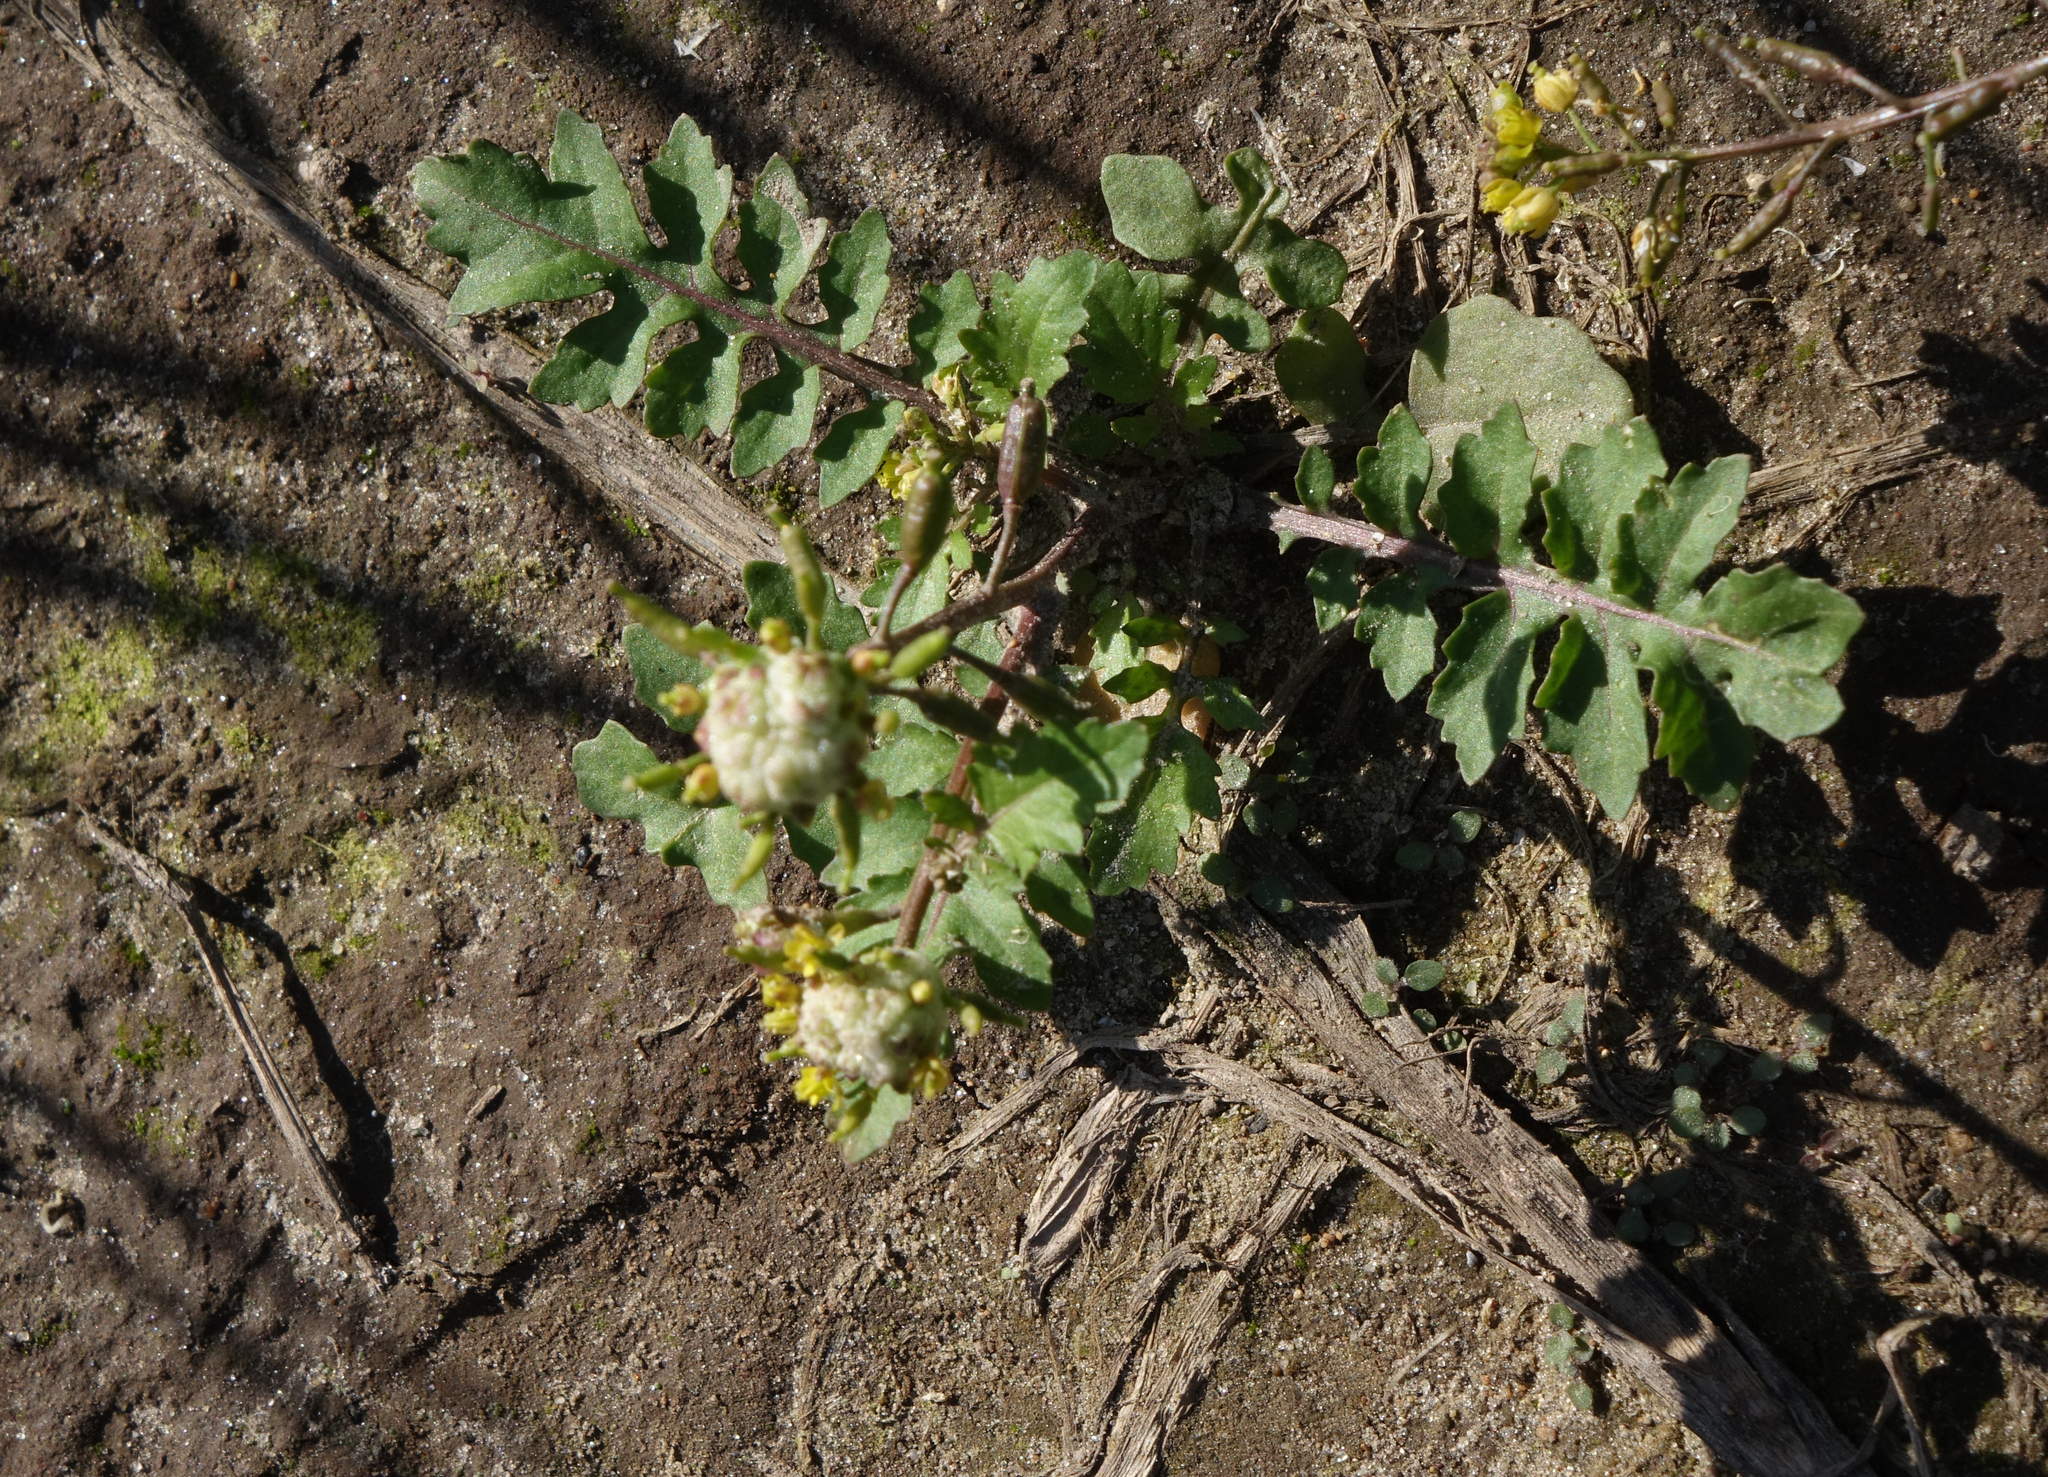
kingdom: Plantae
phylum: Tracheophyta
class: Magnoliopsida
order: Brassicales
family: Brassicaceae
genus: Rorippa
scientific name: Rorippa palustris
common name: Marsh yellow-cress
